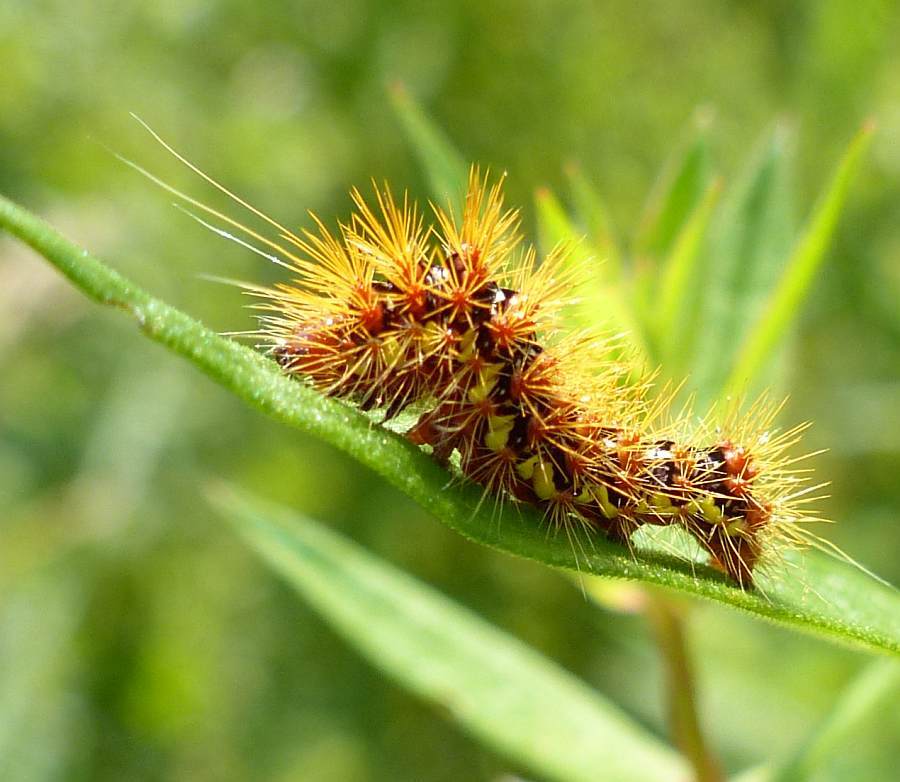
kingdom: Animalia
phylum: Arthropoda
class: Insecta
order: Lepidoptera
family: Noctuidae
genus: Acronicta
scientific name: Acronicta oblinita
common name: Smeared dagger
